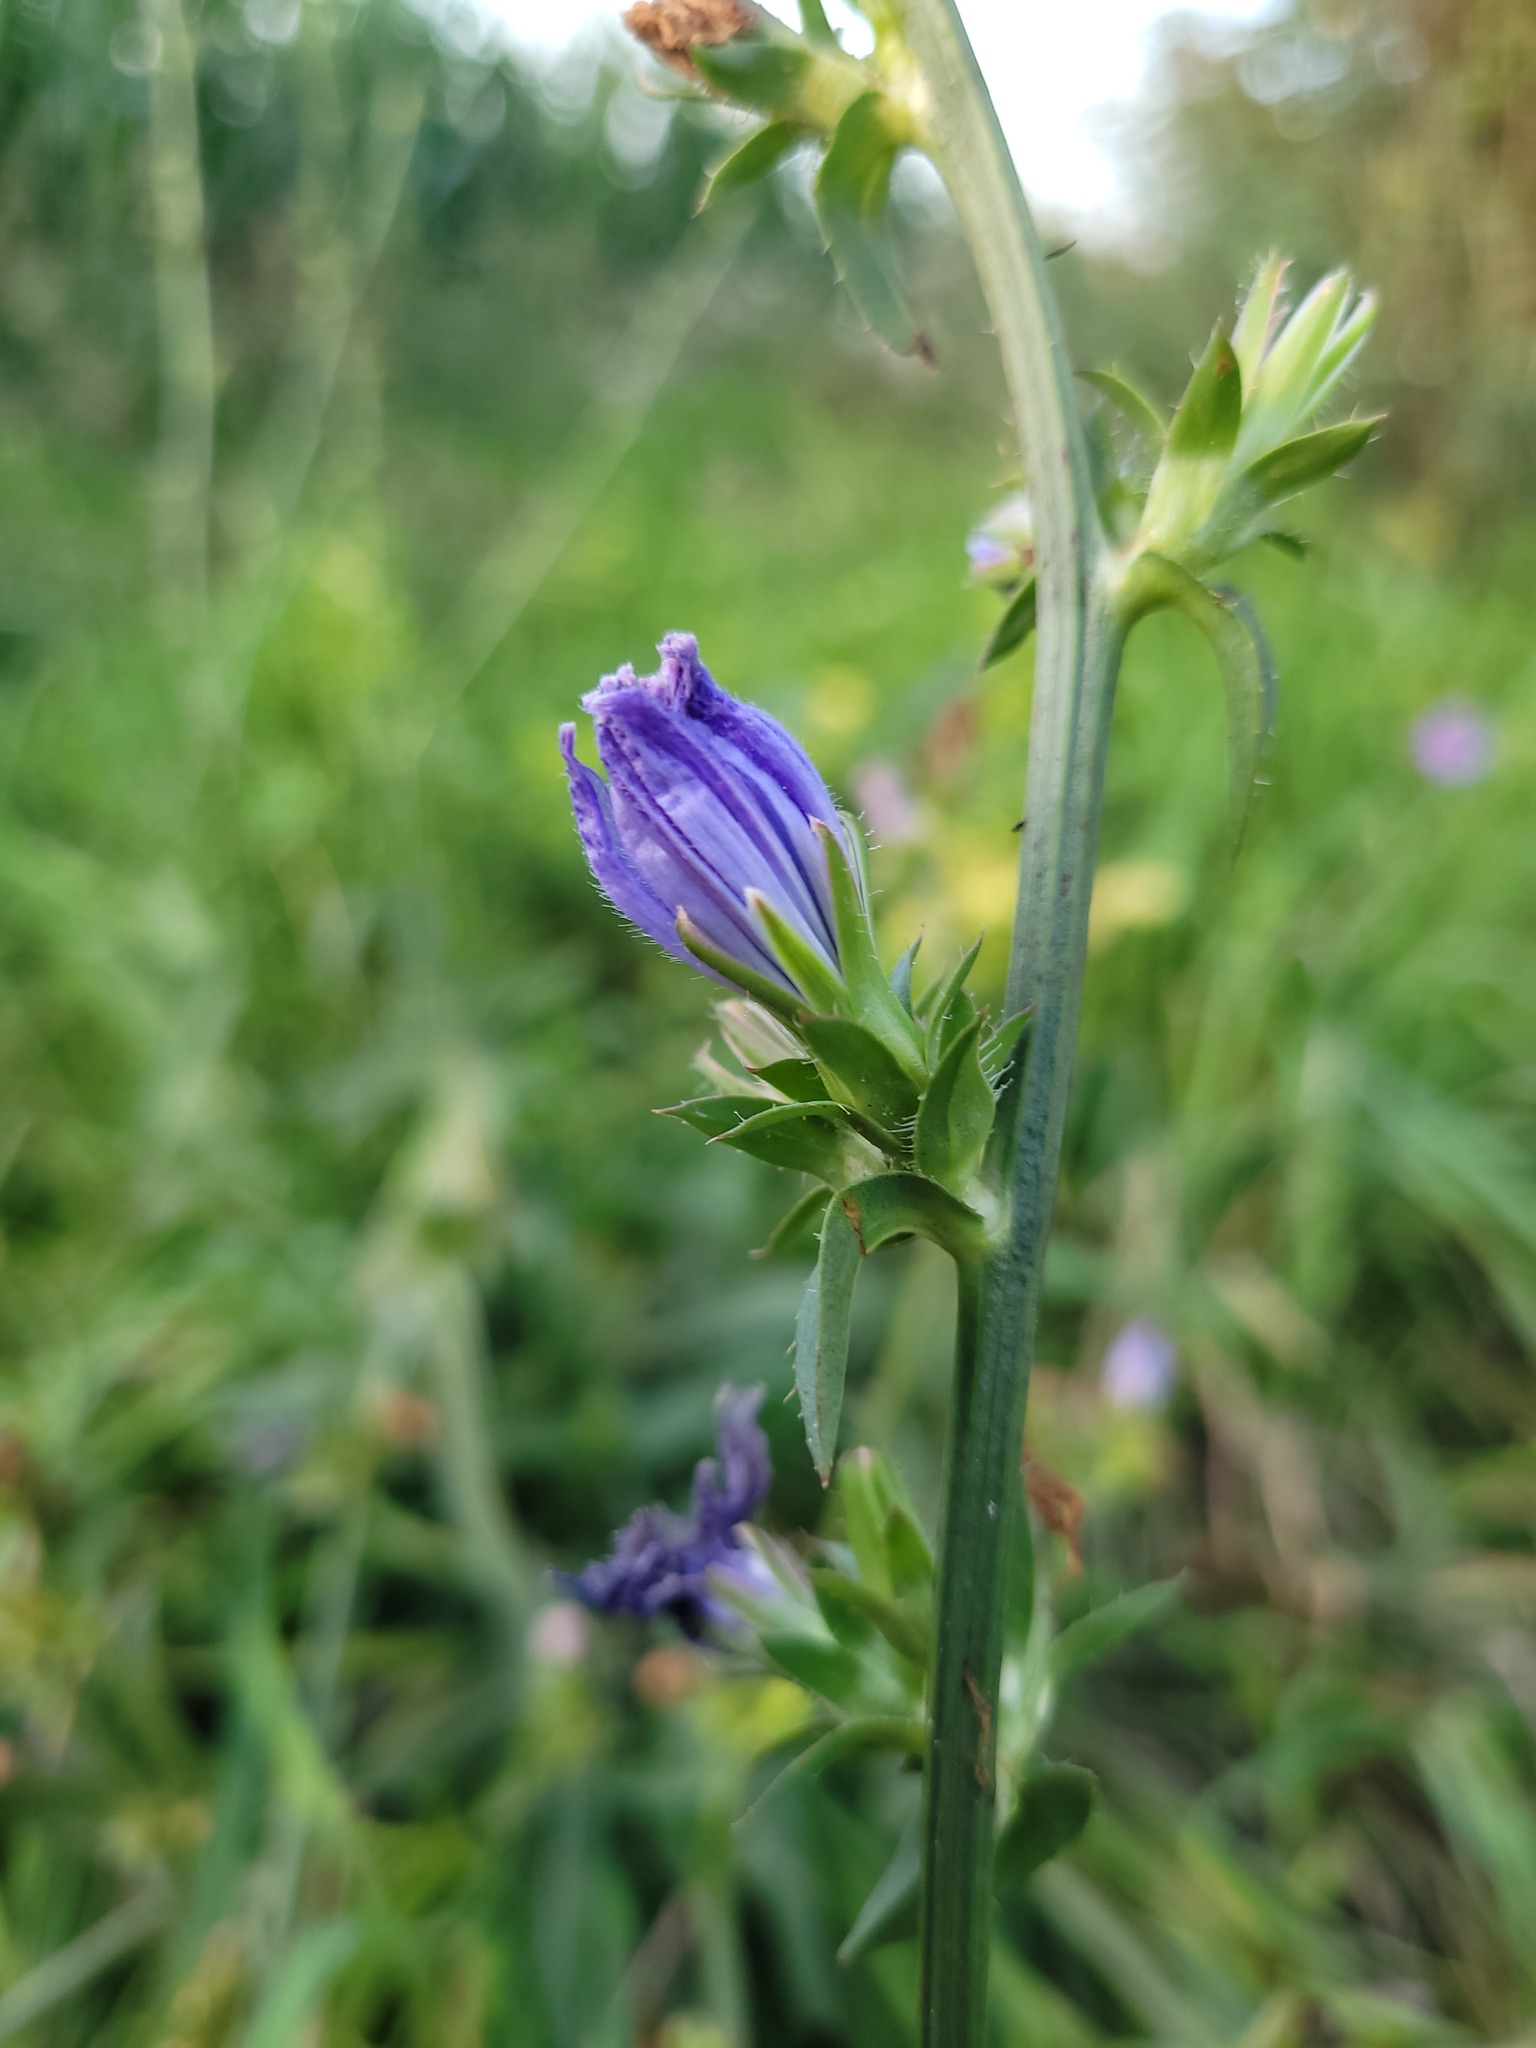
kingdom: Plantae
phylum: Tracheophyta
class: Magnoliopsida
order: Asterales
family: Asteraceae
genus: Cichorium
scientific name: Cichorium intybus
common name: Chicory
